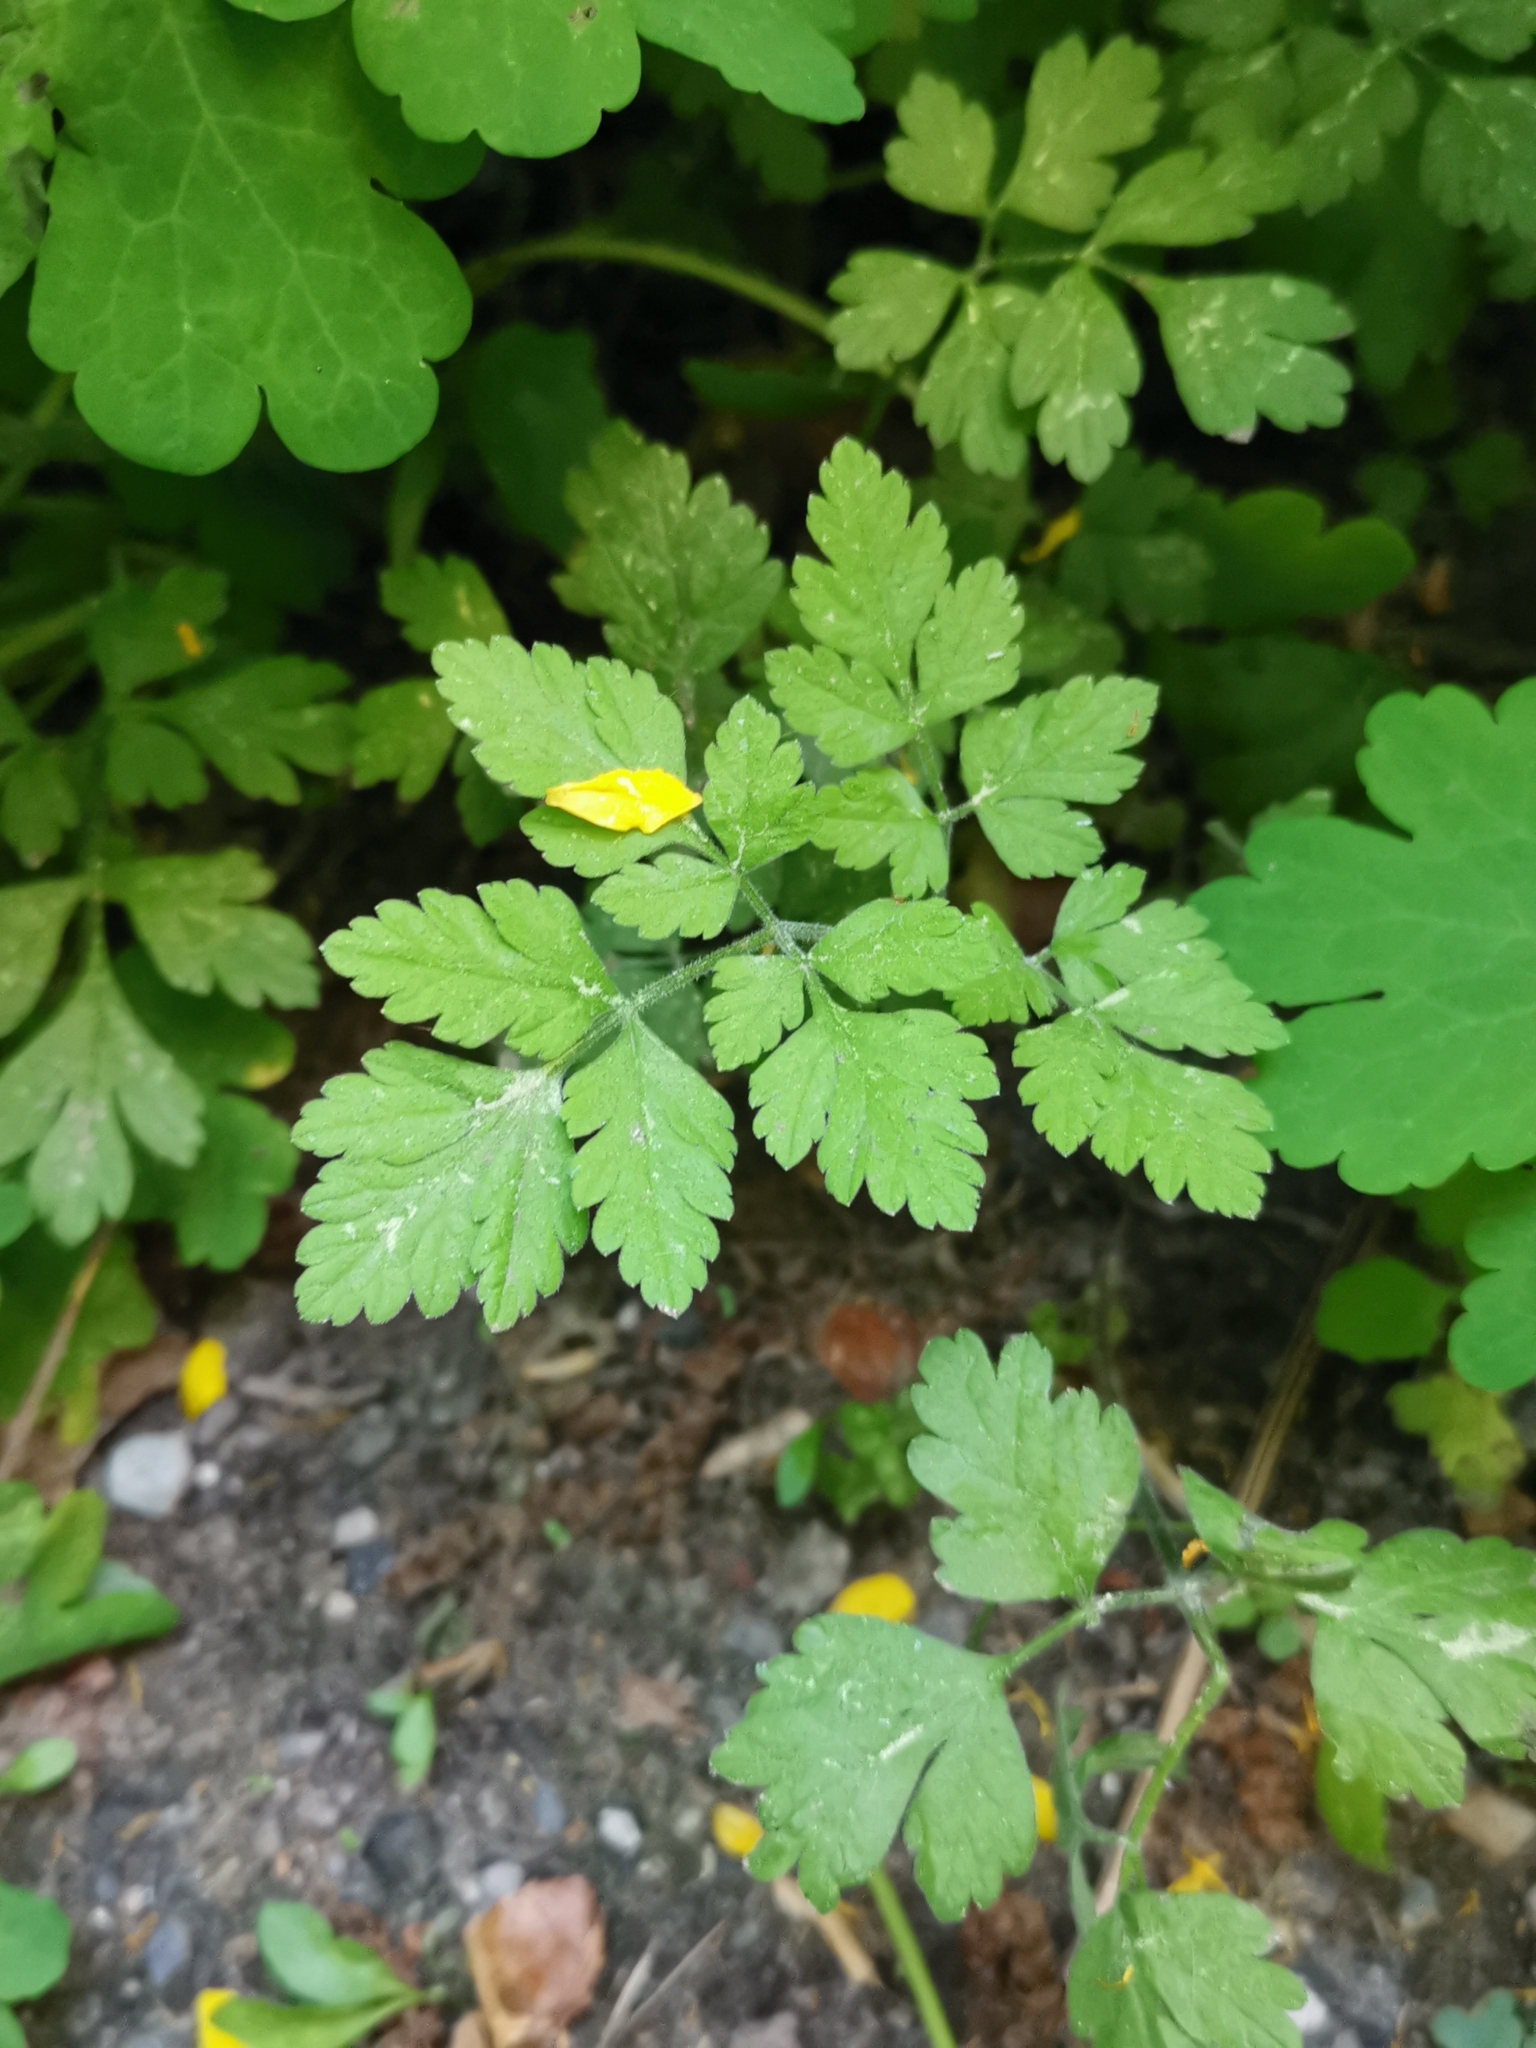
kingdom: Plantae
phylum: Tracheophyta
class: Magnoliopsida
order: Apiales
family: Apiaceae
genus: Chaerophyllum
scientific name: Chaerophyllum temulum
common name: Rough chervil
